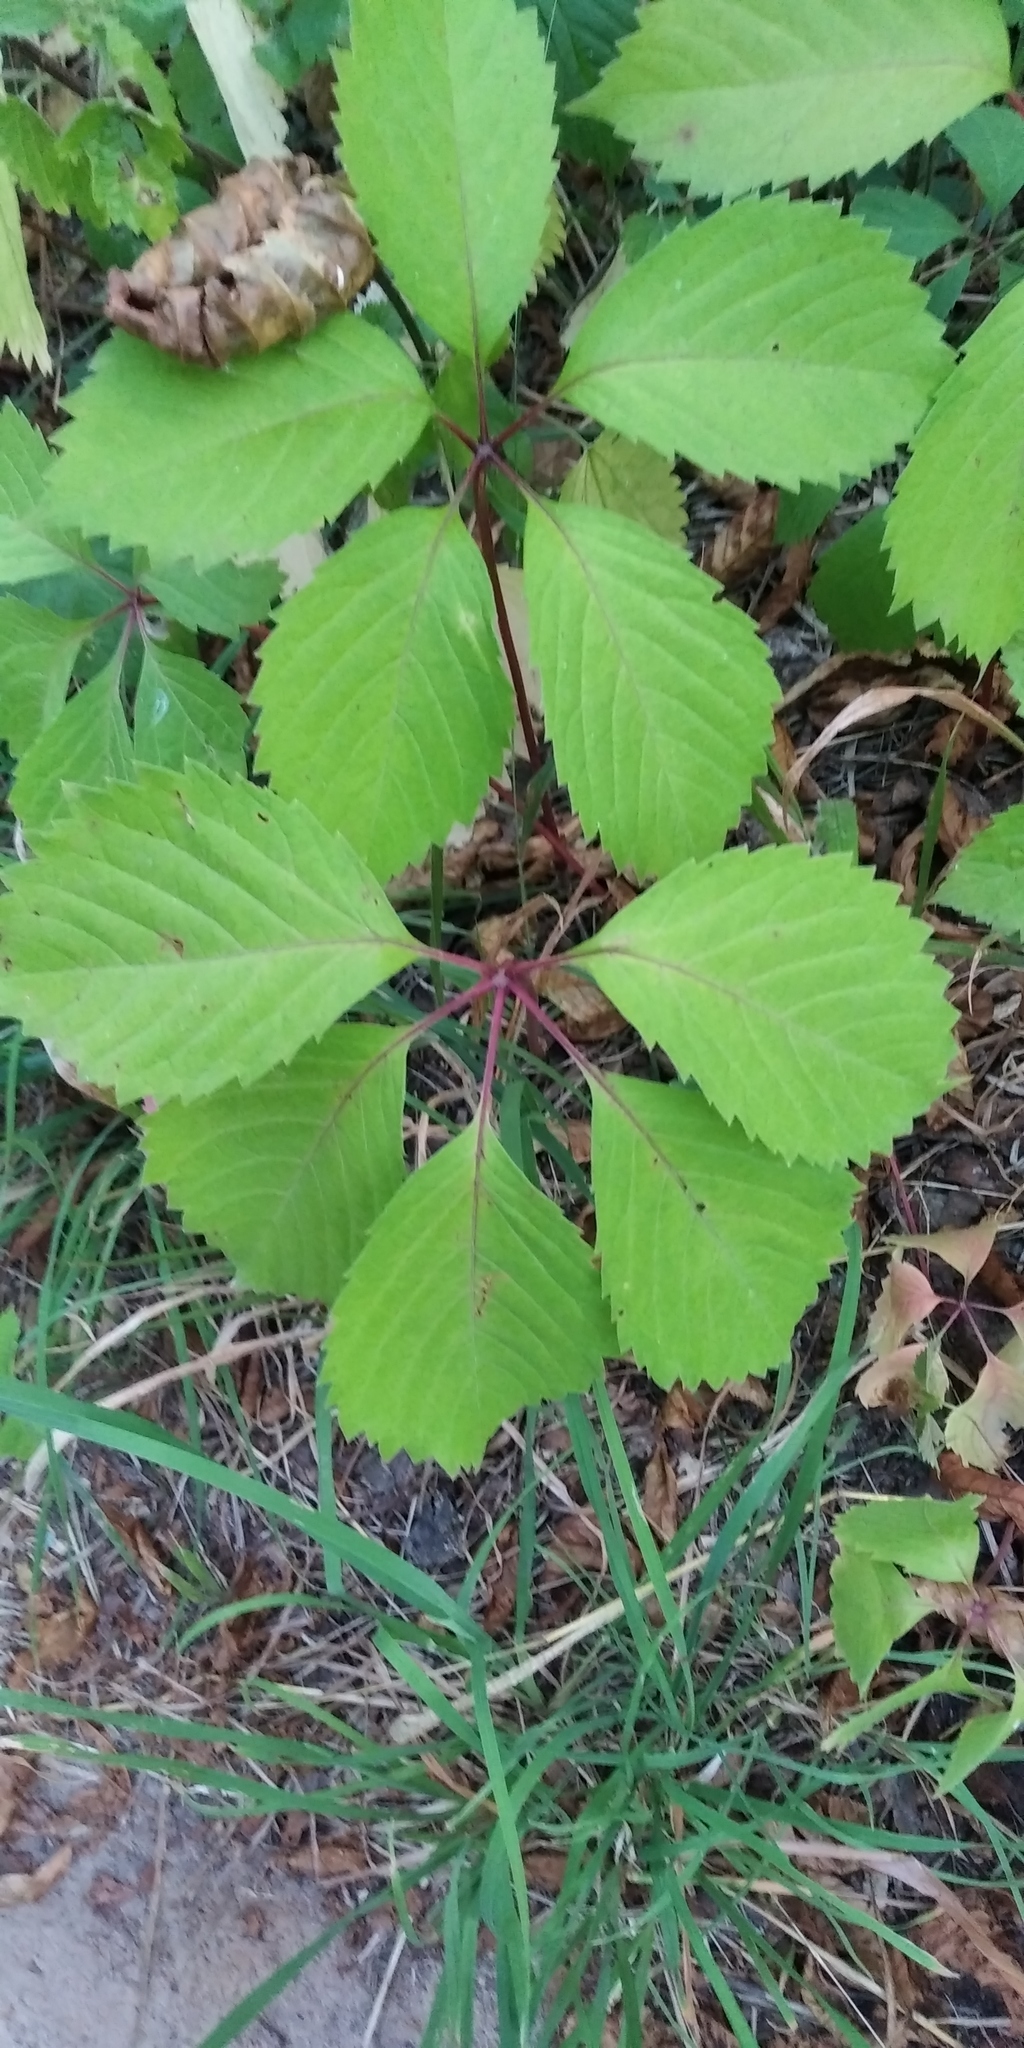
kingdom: Plantae
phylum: Tracheophyta
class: Magnoliopsida
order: Vitales
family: Vitaceae
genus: Parthenocissus
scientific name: Parthenocissus inserta
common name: False virginia-creeper
